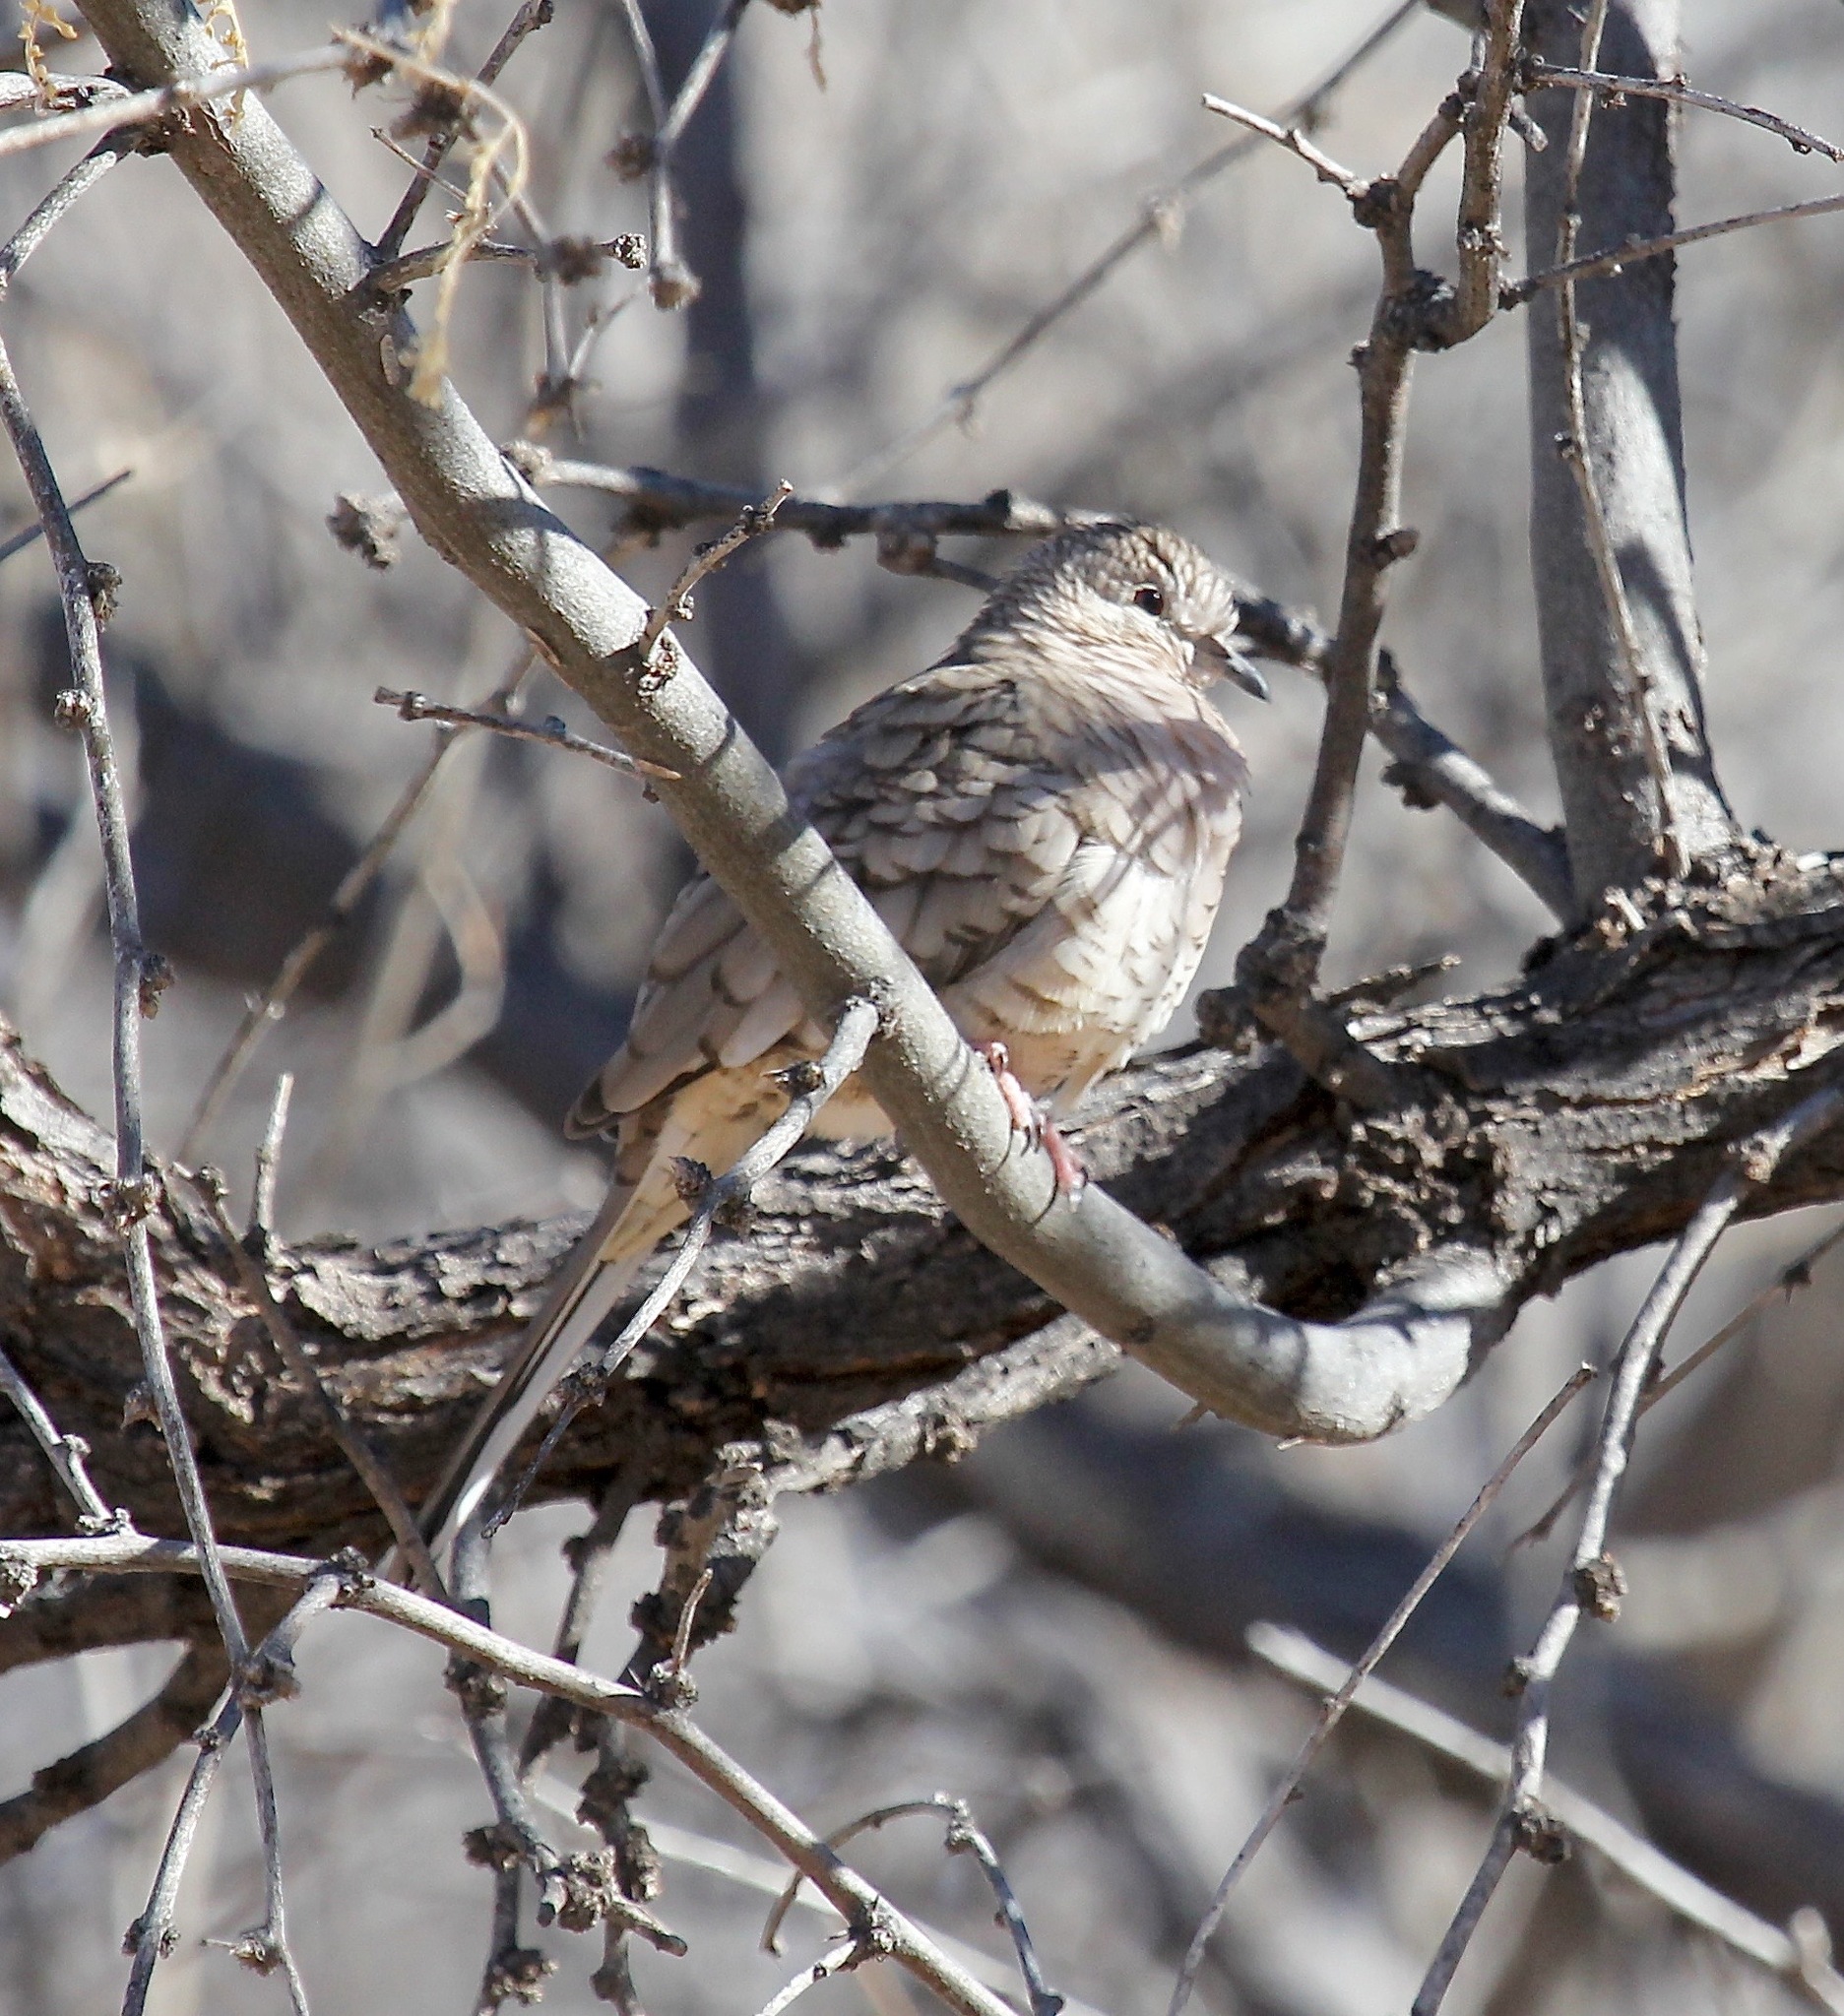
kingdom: Animalia
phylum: Chordata
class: Aves
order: Columbiformes
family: Columbidae
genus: Columbina
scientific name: Columbina inca
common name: Inca dove
